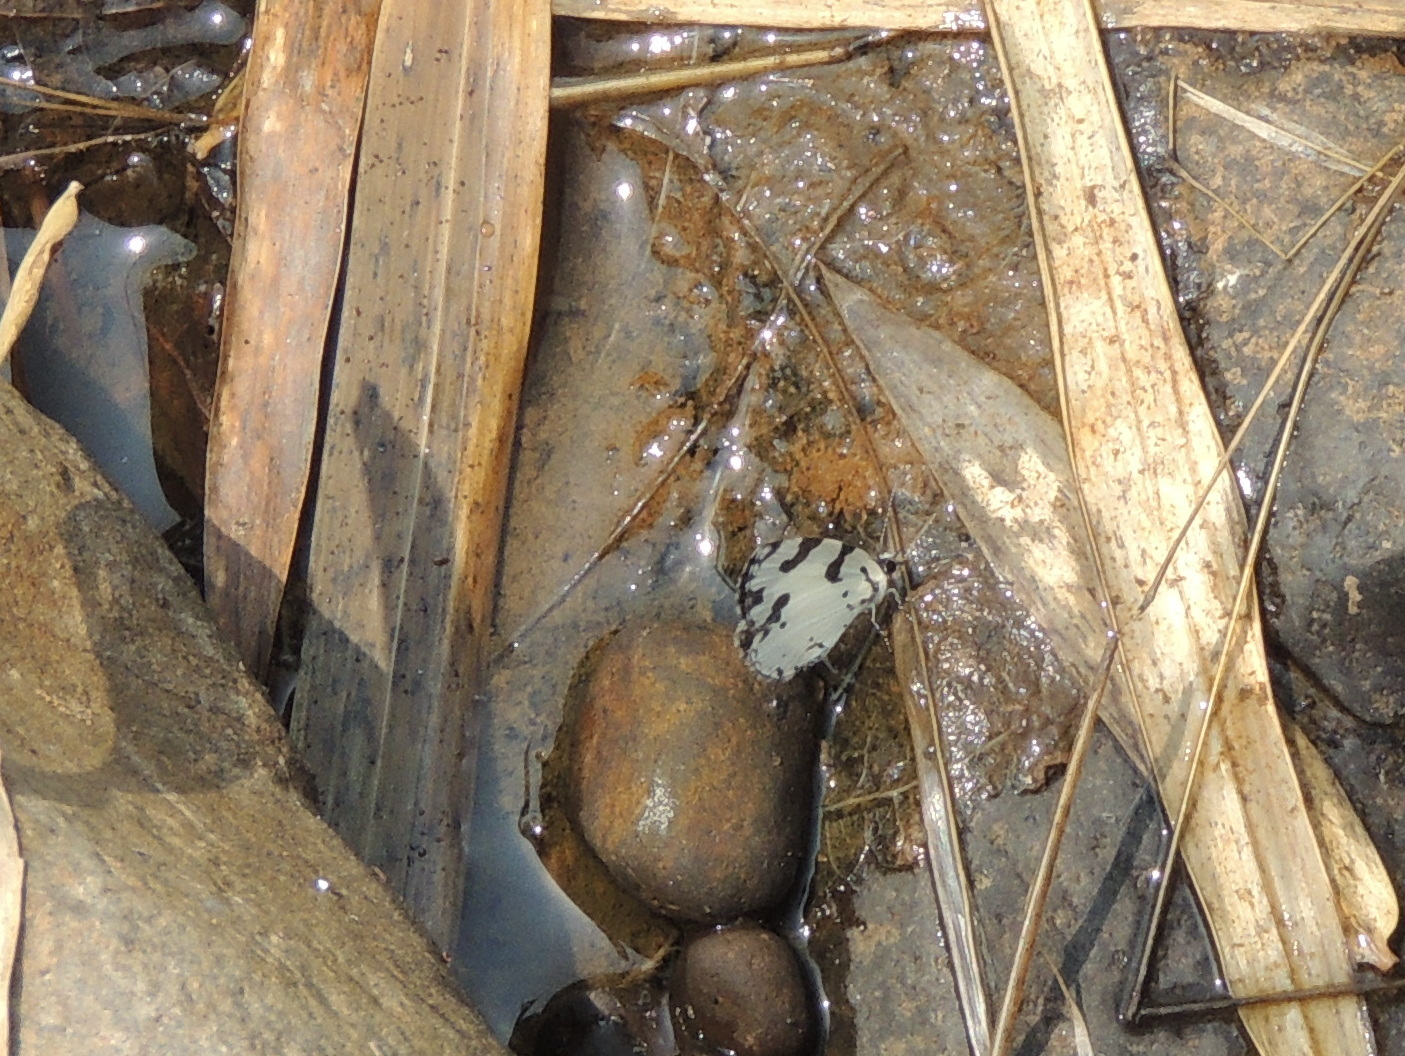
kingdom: Animalia
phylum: Arthropoda
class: Insecta
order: Lepidoptera
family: Lycaenidae
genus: Caleta
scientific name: Caleta decidia
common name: Angled pierrot
